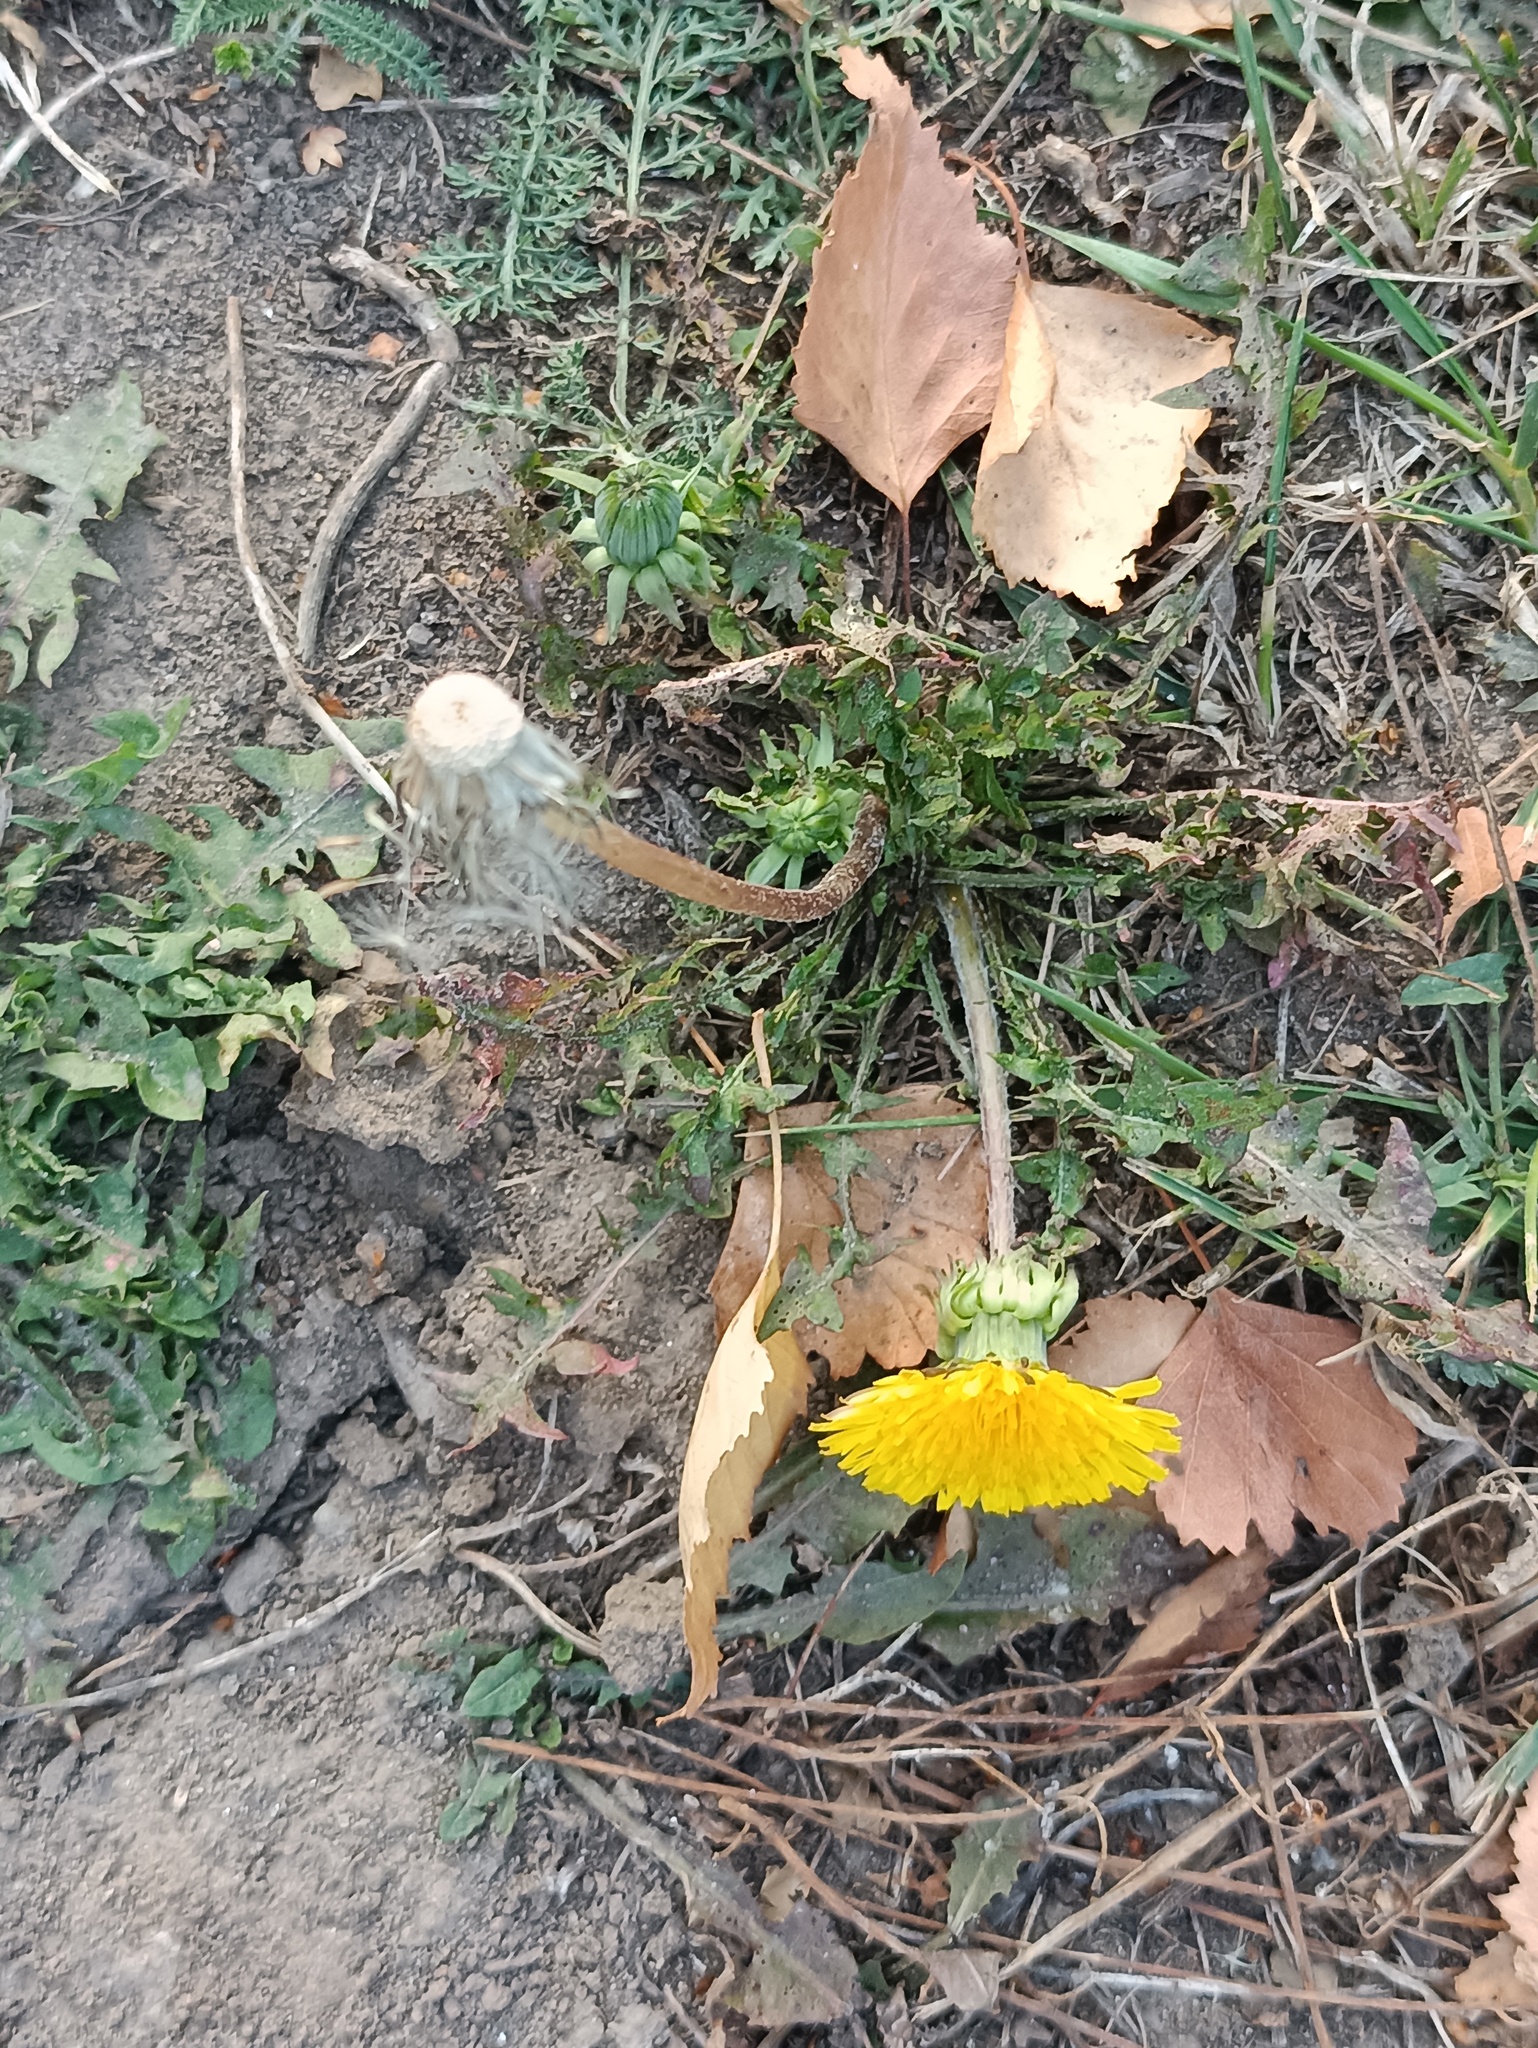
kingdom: Plantae
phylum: Tracheophyta
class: Magnoliopsida
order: Asterales
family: Asteraceae
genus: Taraxacum
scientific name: Taraxacum officinale
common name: Common dandelion
